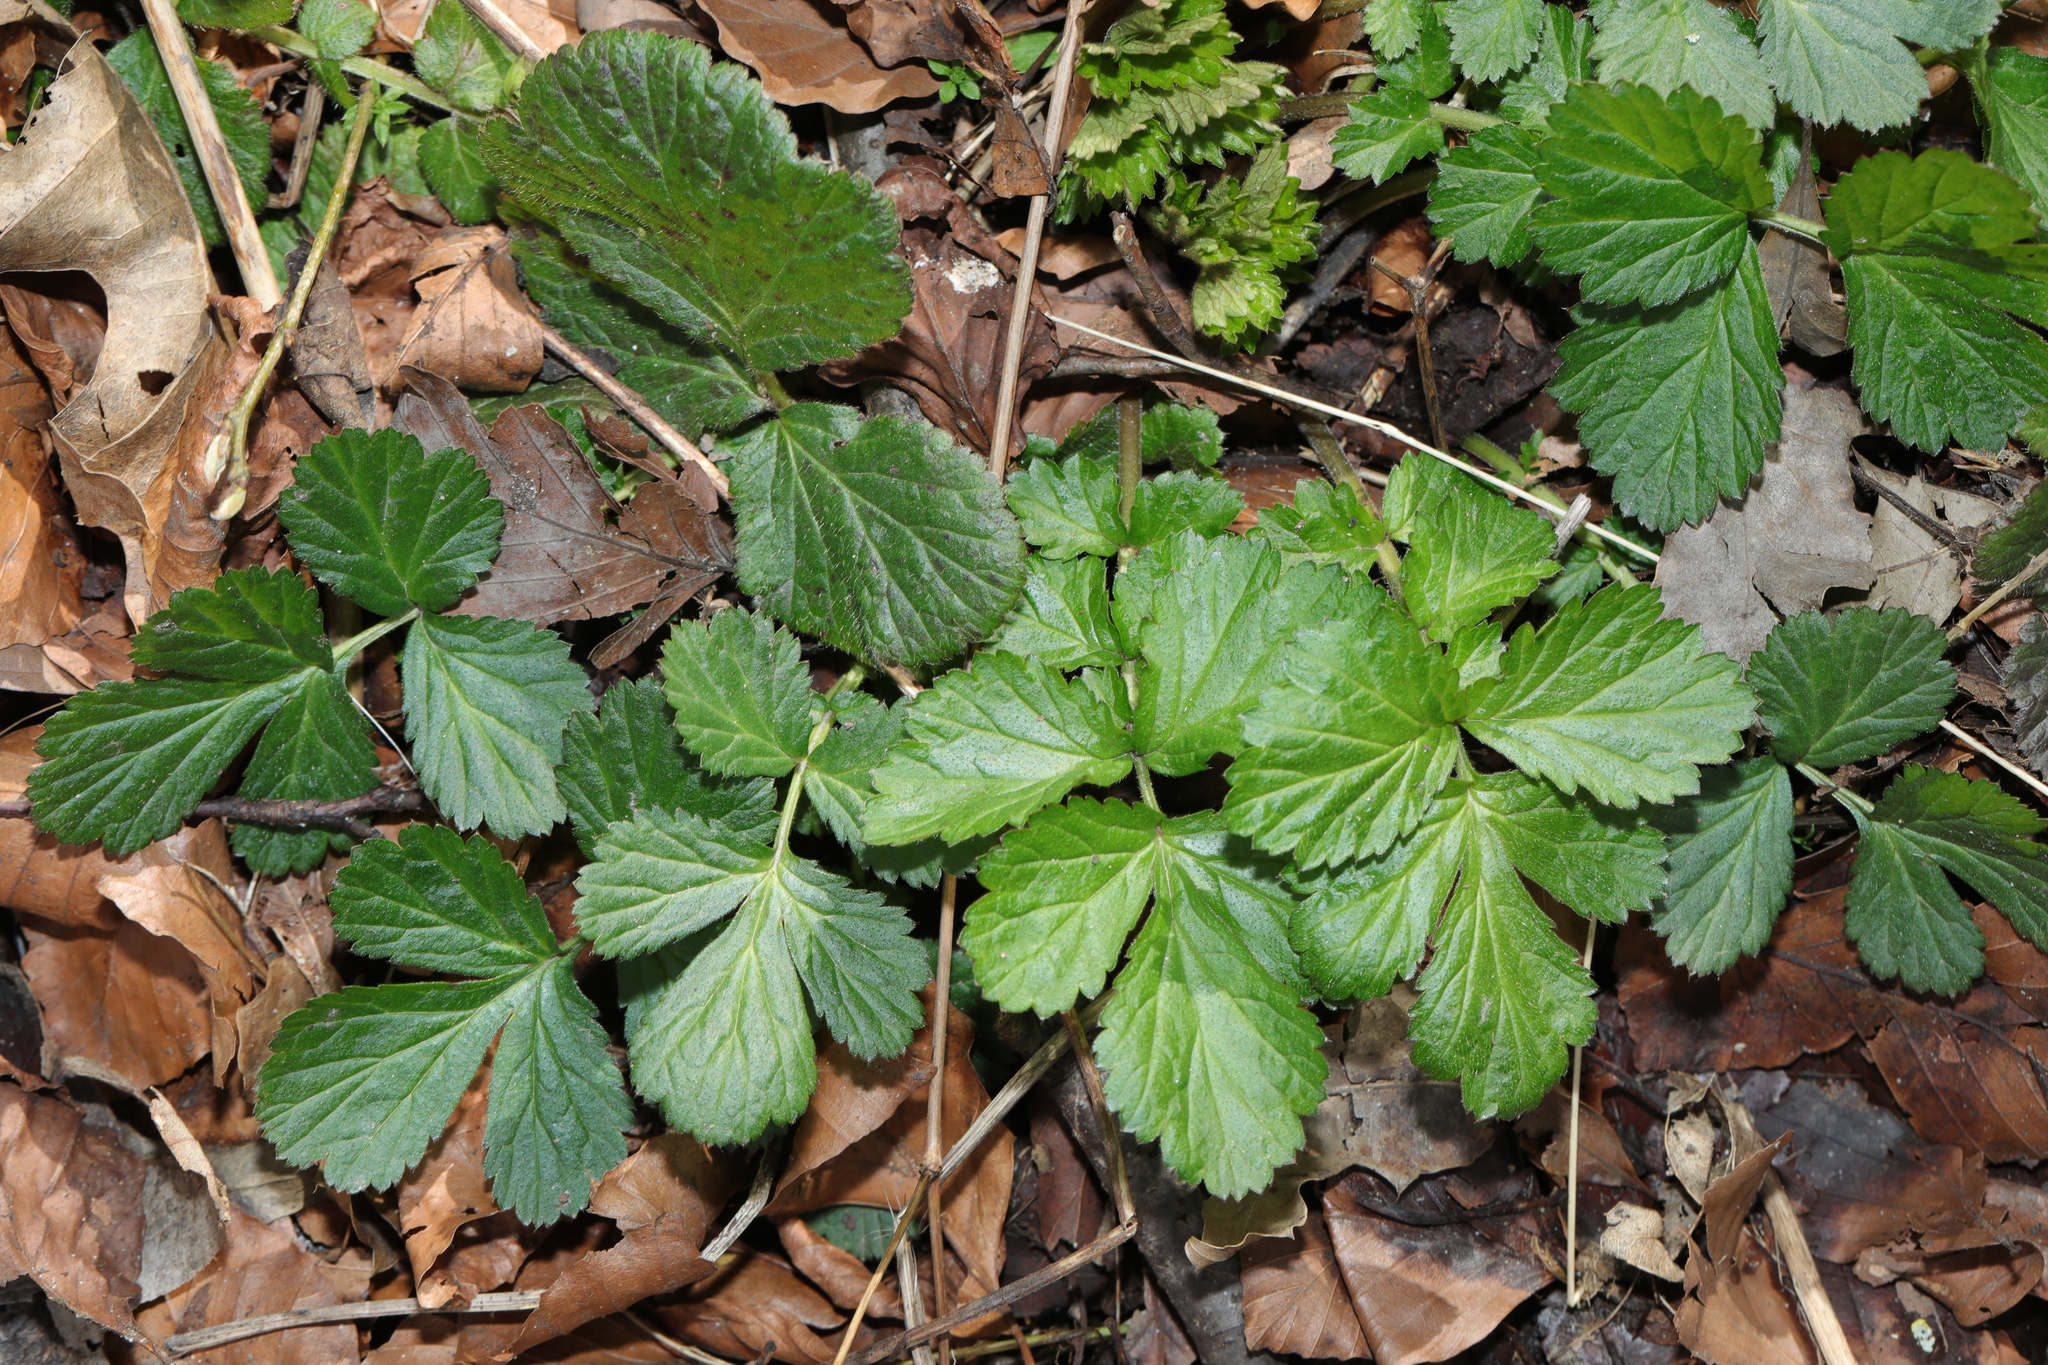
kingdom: Plantae
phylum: Tracheophyta
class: Magnoliopsida
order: Rosales
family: Rosaceae
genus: Geum
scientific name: Geum urbanum
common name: Wood avens
